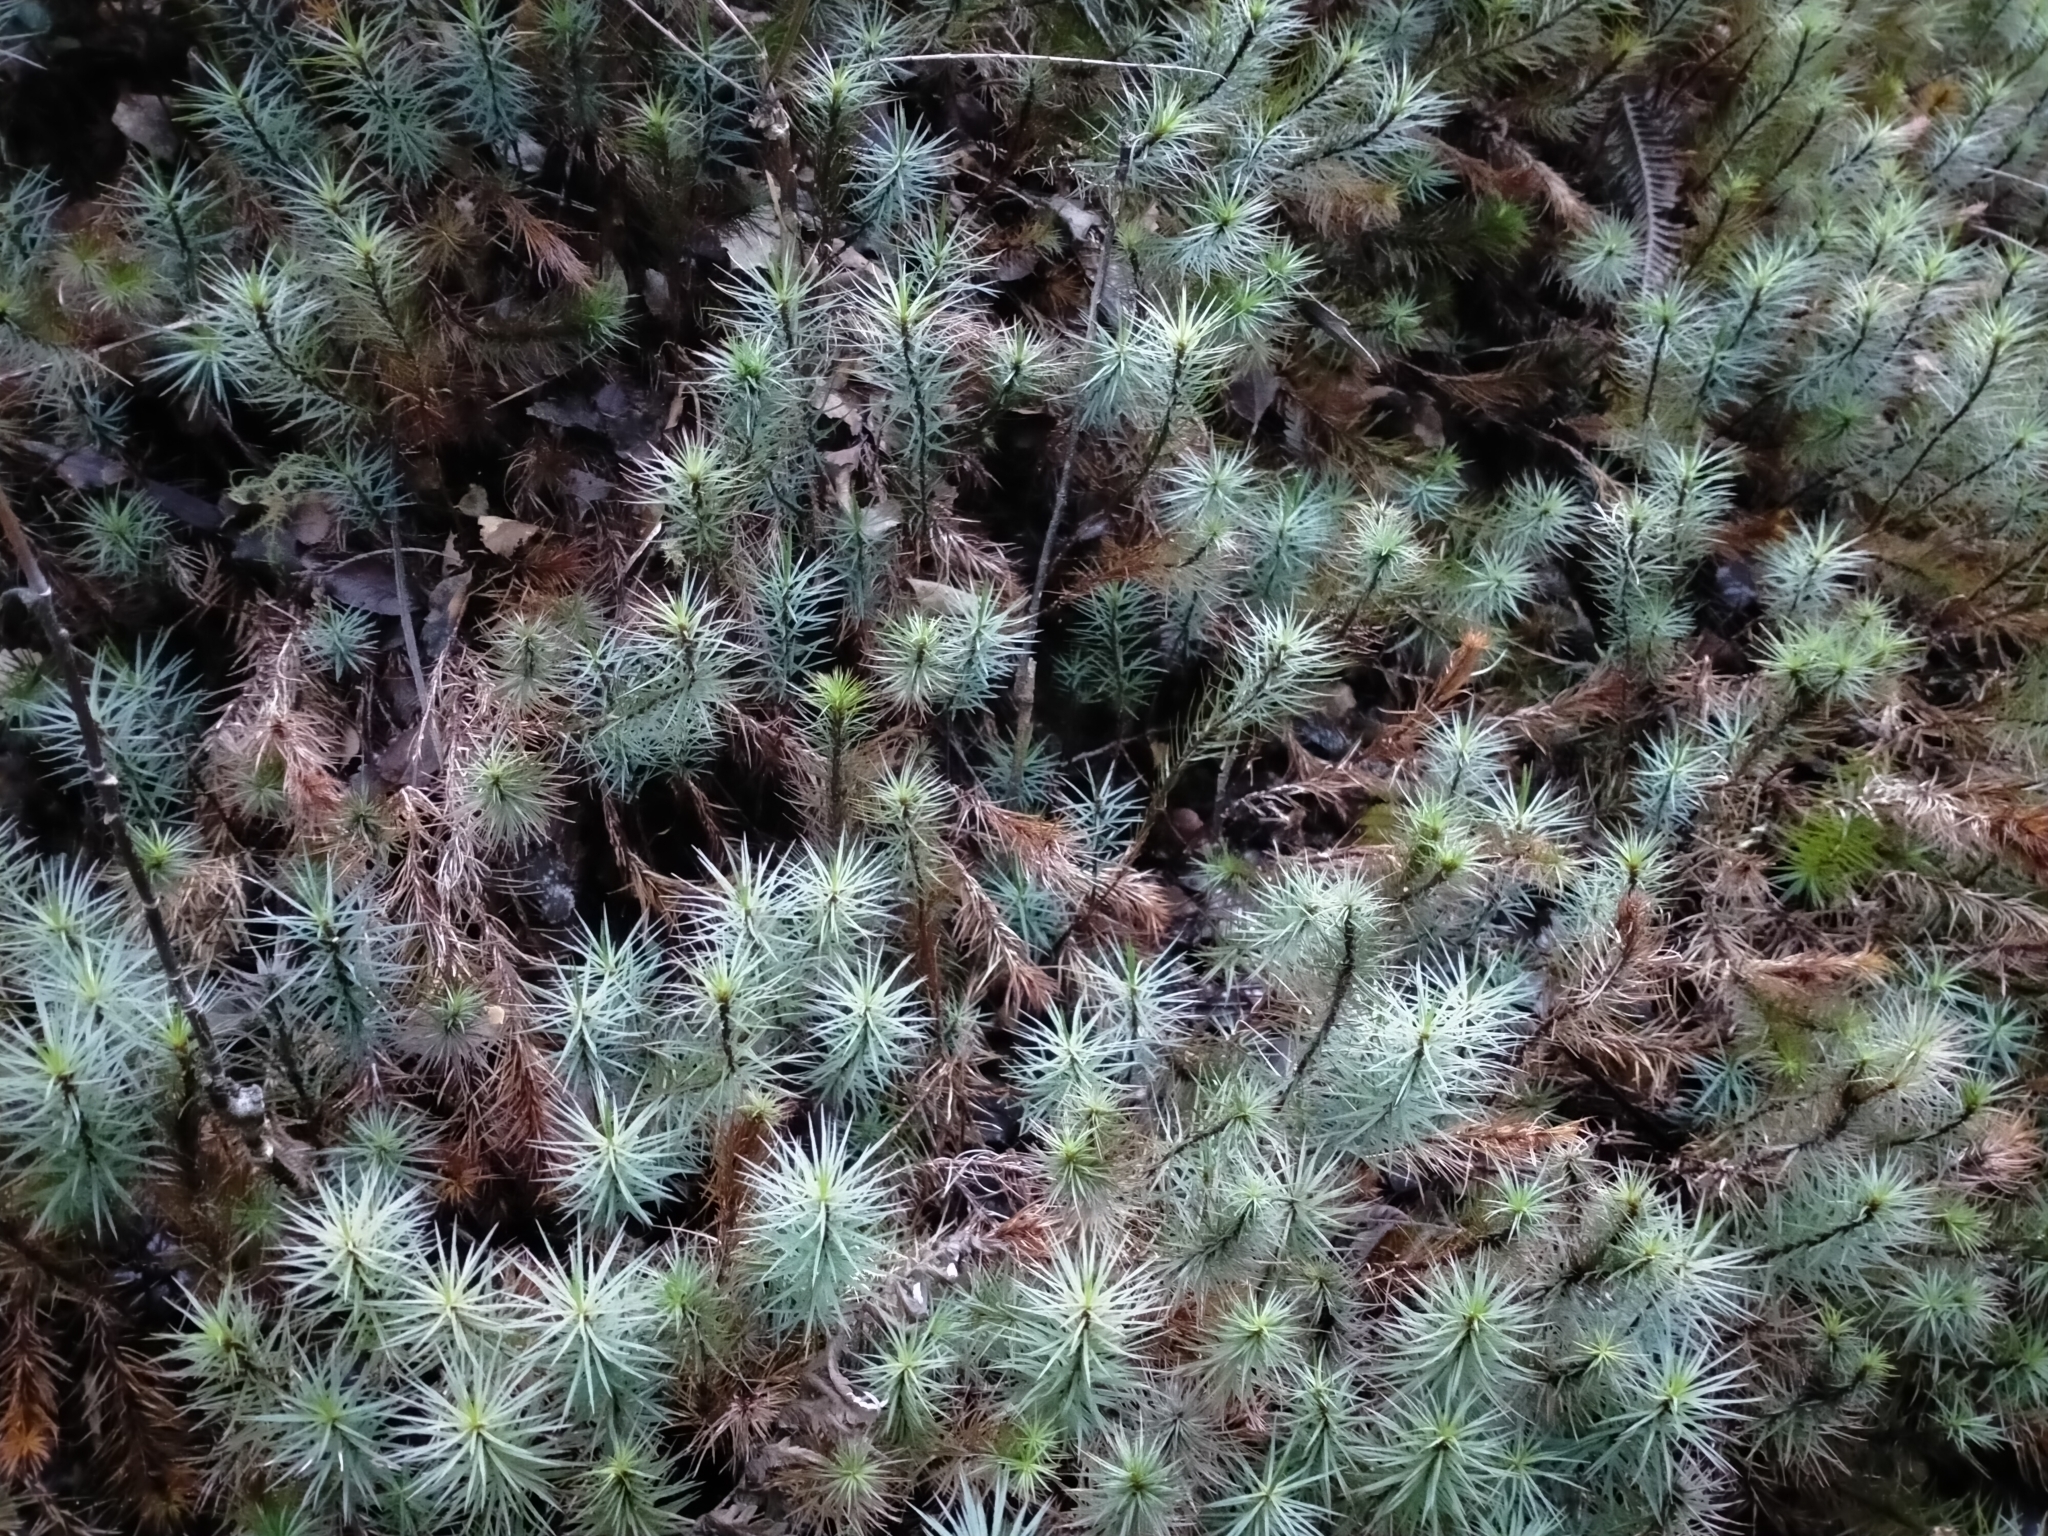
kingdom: Plantae
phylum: Bryophyta
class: Polytrichopsida
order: Polytrichales
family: Polytrichaceae
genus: Dawsonia
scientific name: Dawsonia superba
